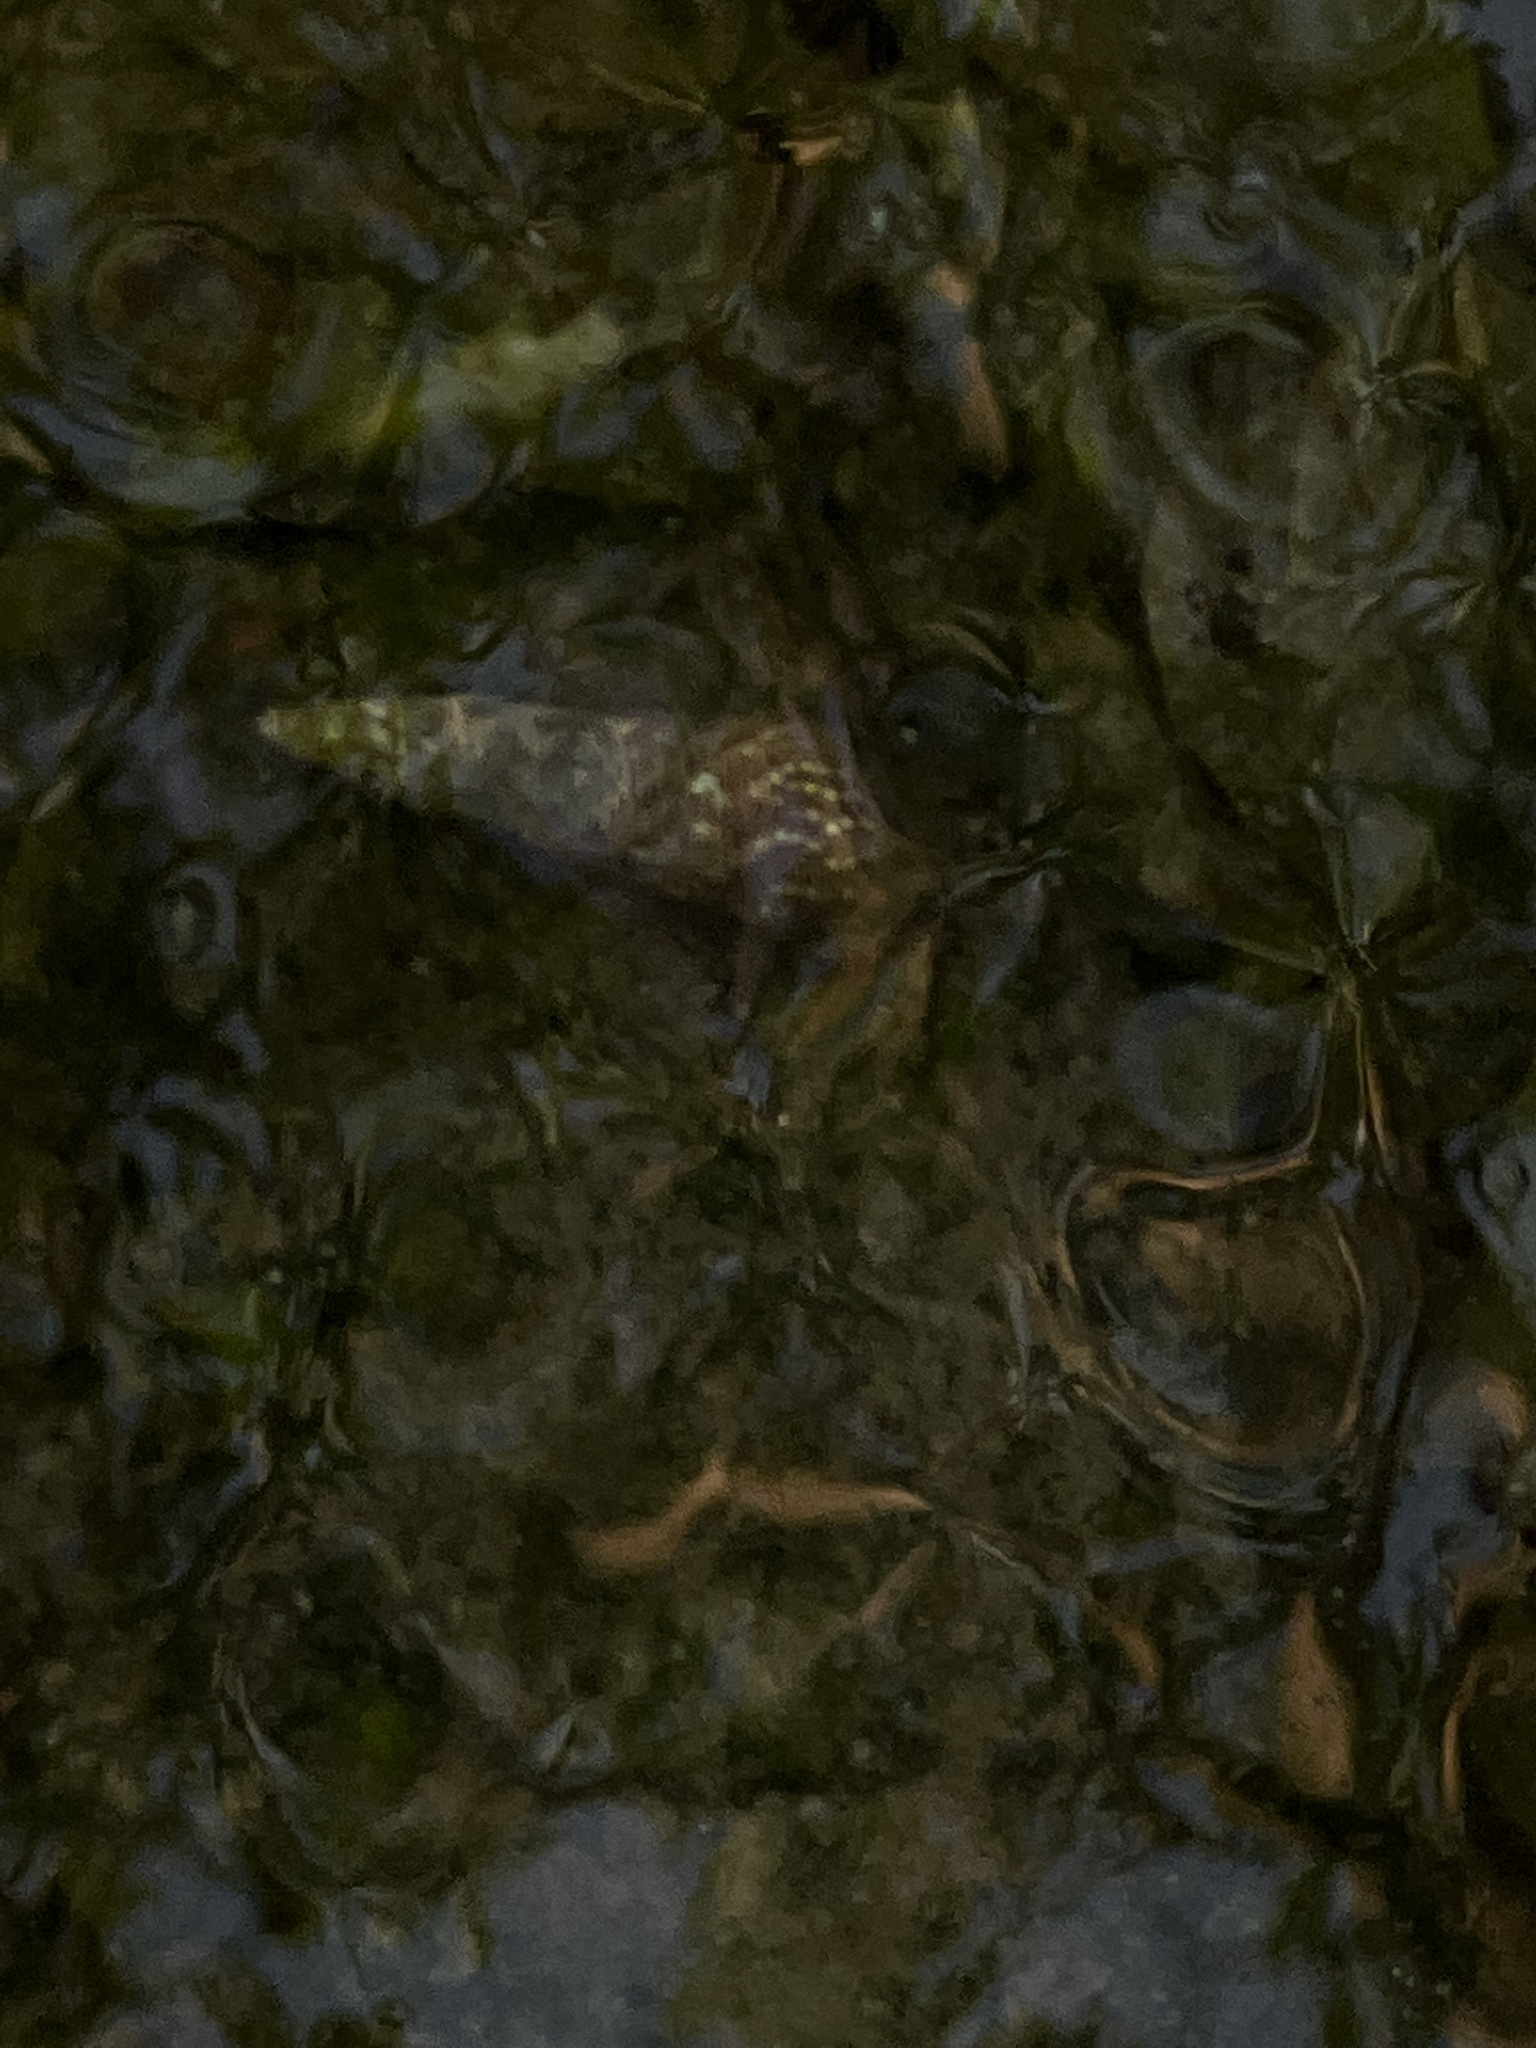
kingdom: Animalia
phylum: Mollusca
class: Gastropoda
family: Batillariidae
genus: Batillaria
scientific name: Batillaria attramentaria
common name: Japanese false cerith
